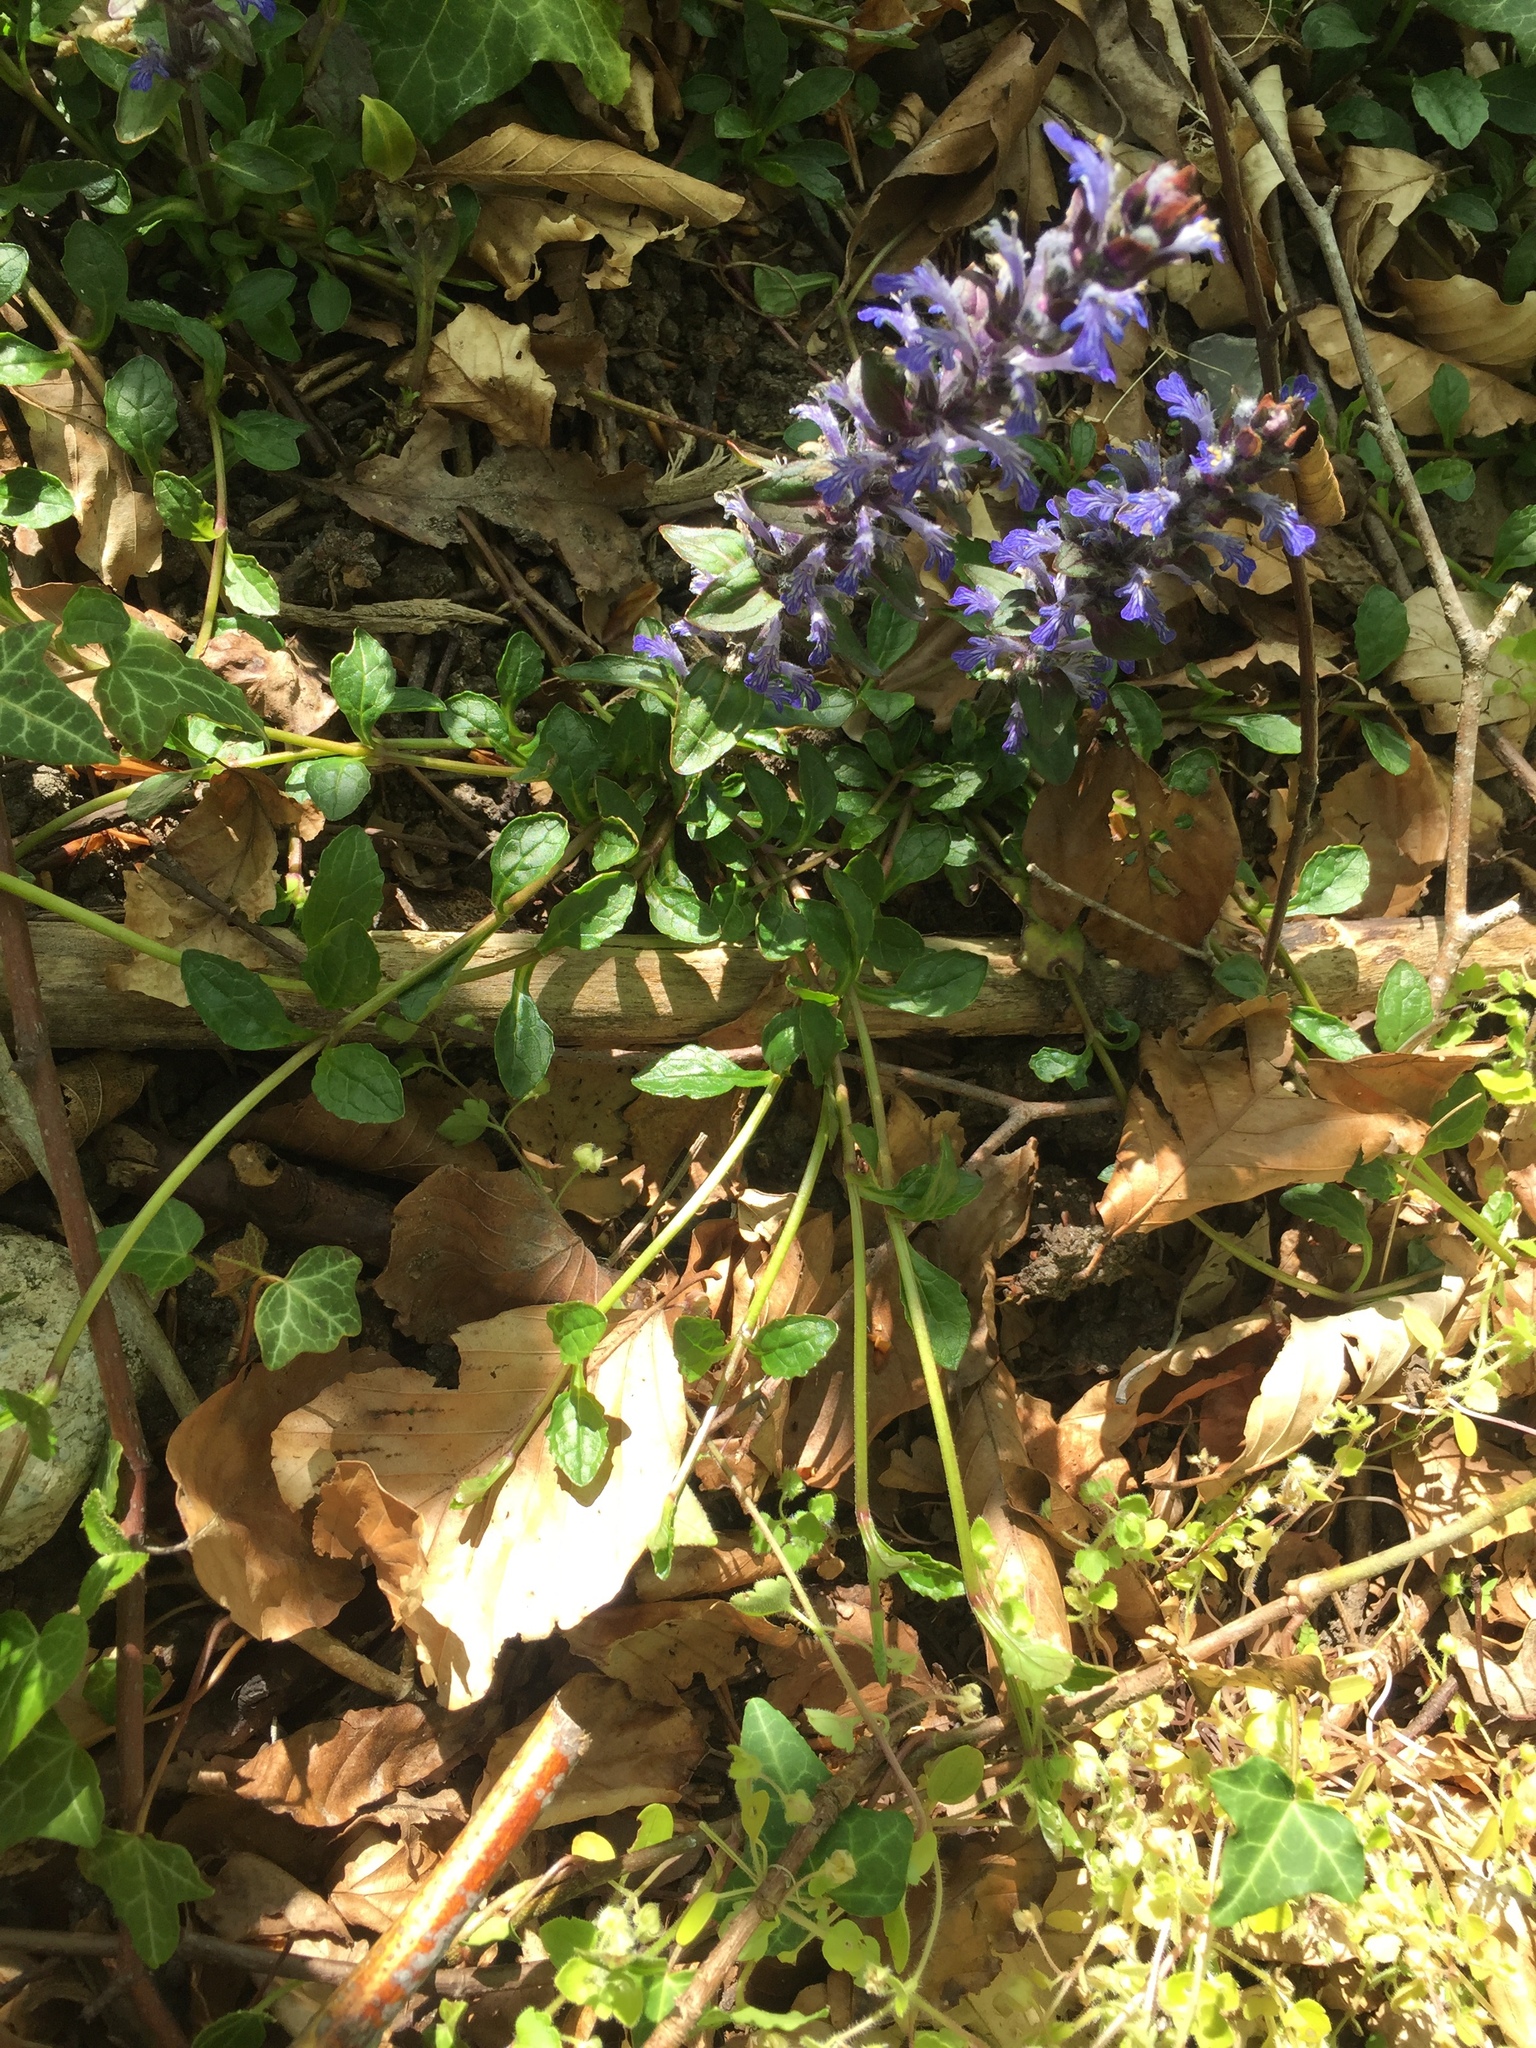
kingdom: Plantae
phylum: Tracheophyta
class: Magnoliopsida
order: Lamiales
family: Lamiaceae
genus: Ajuga
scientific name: Ajuga reptans
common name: Bugle
